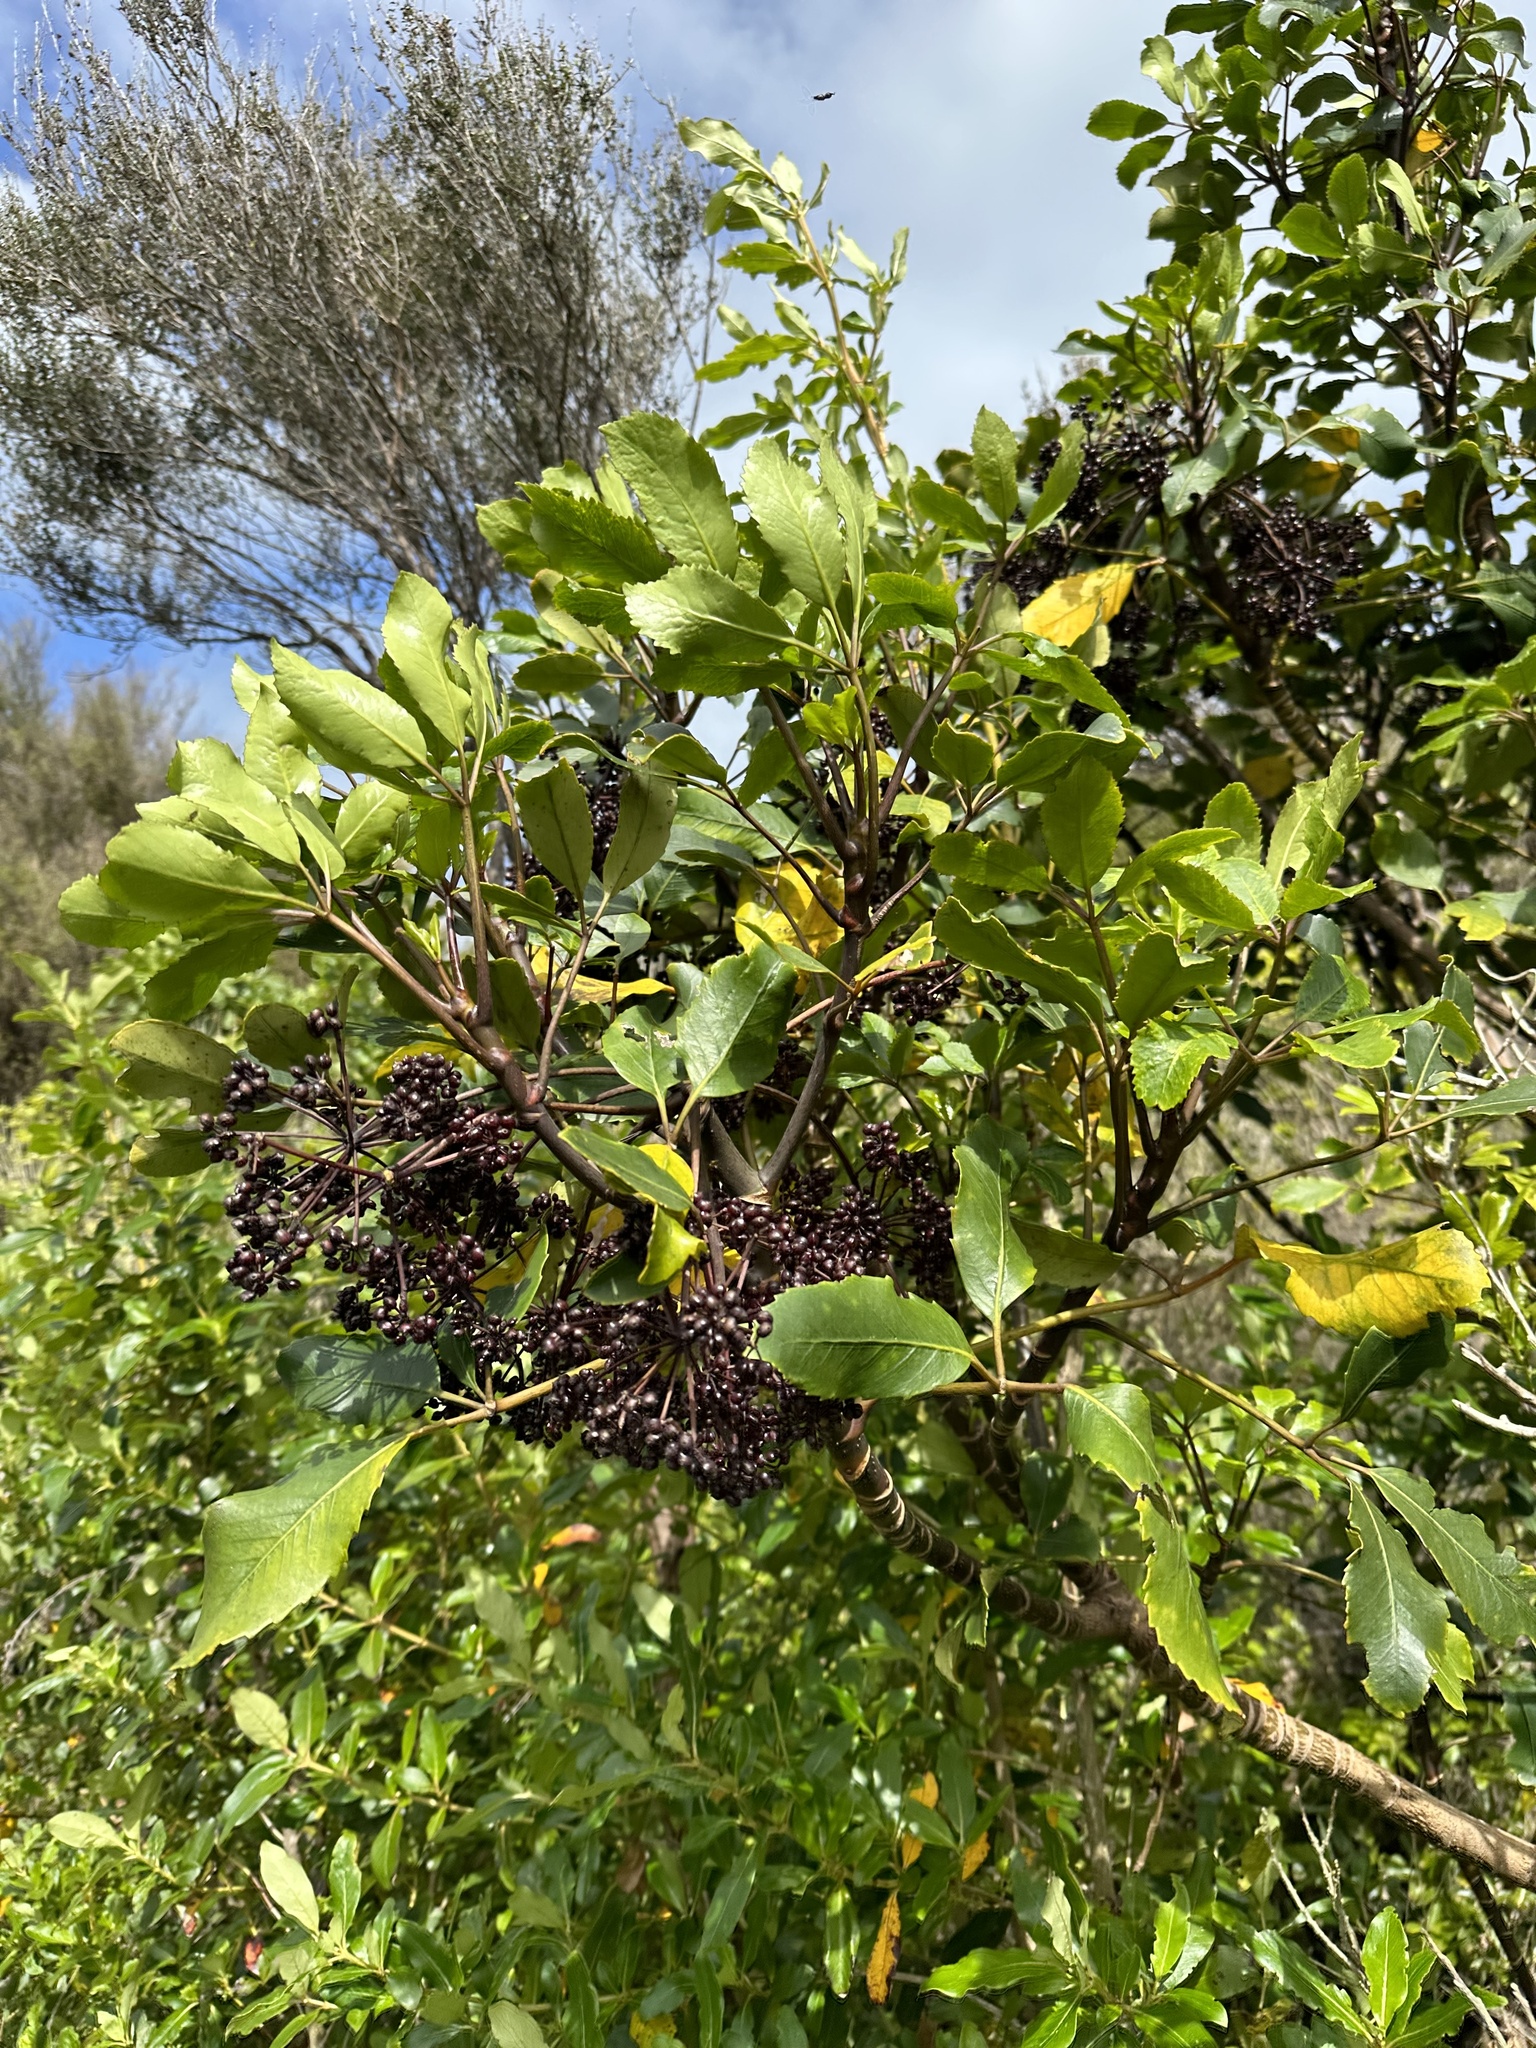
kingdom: Plantae
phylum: Tracheophyta
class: Magnoliopsida
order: Apiales
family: Araliaceae
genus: Neopanax
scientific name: Neopanax arboreus
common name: Five-fingers
